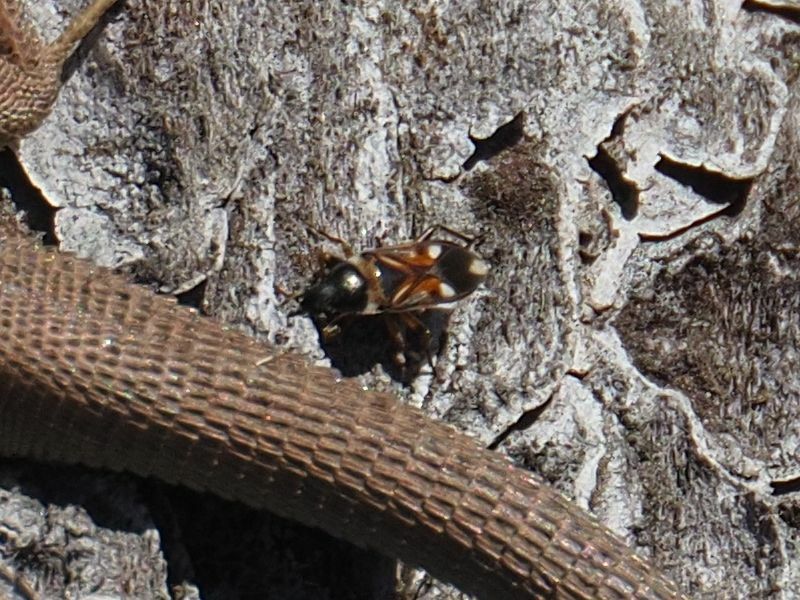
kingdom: Animalia
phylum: Arthropoda
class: Insecta
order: Hemiptera
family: Rhyparochromidae
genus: Raglius
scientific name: Raglius alboacuminatus
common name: Dirt-colored seed bug
